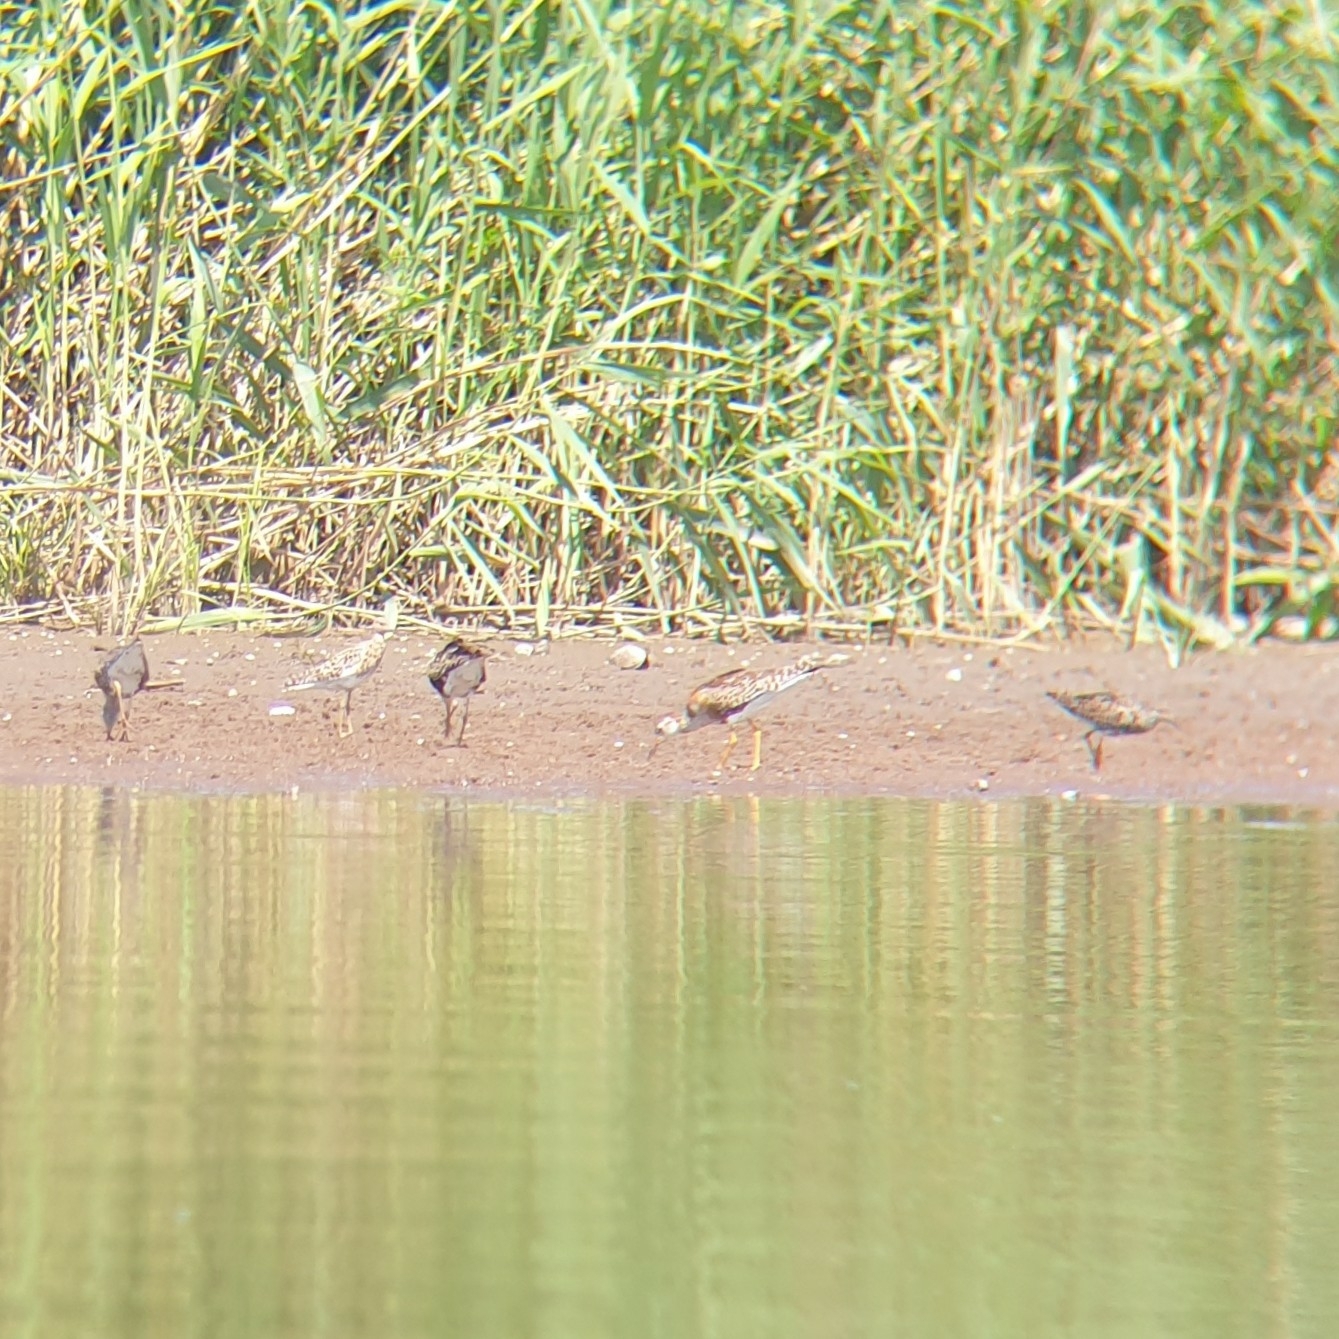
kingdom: Animalia
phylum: Chordata
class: Aves
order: Charadriiformes
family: Scolopacidae
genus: Calidris
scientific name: Calidris pugnax
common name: Ruff
